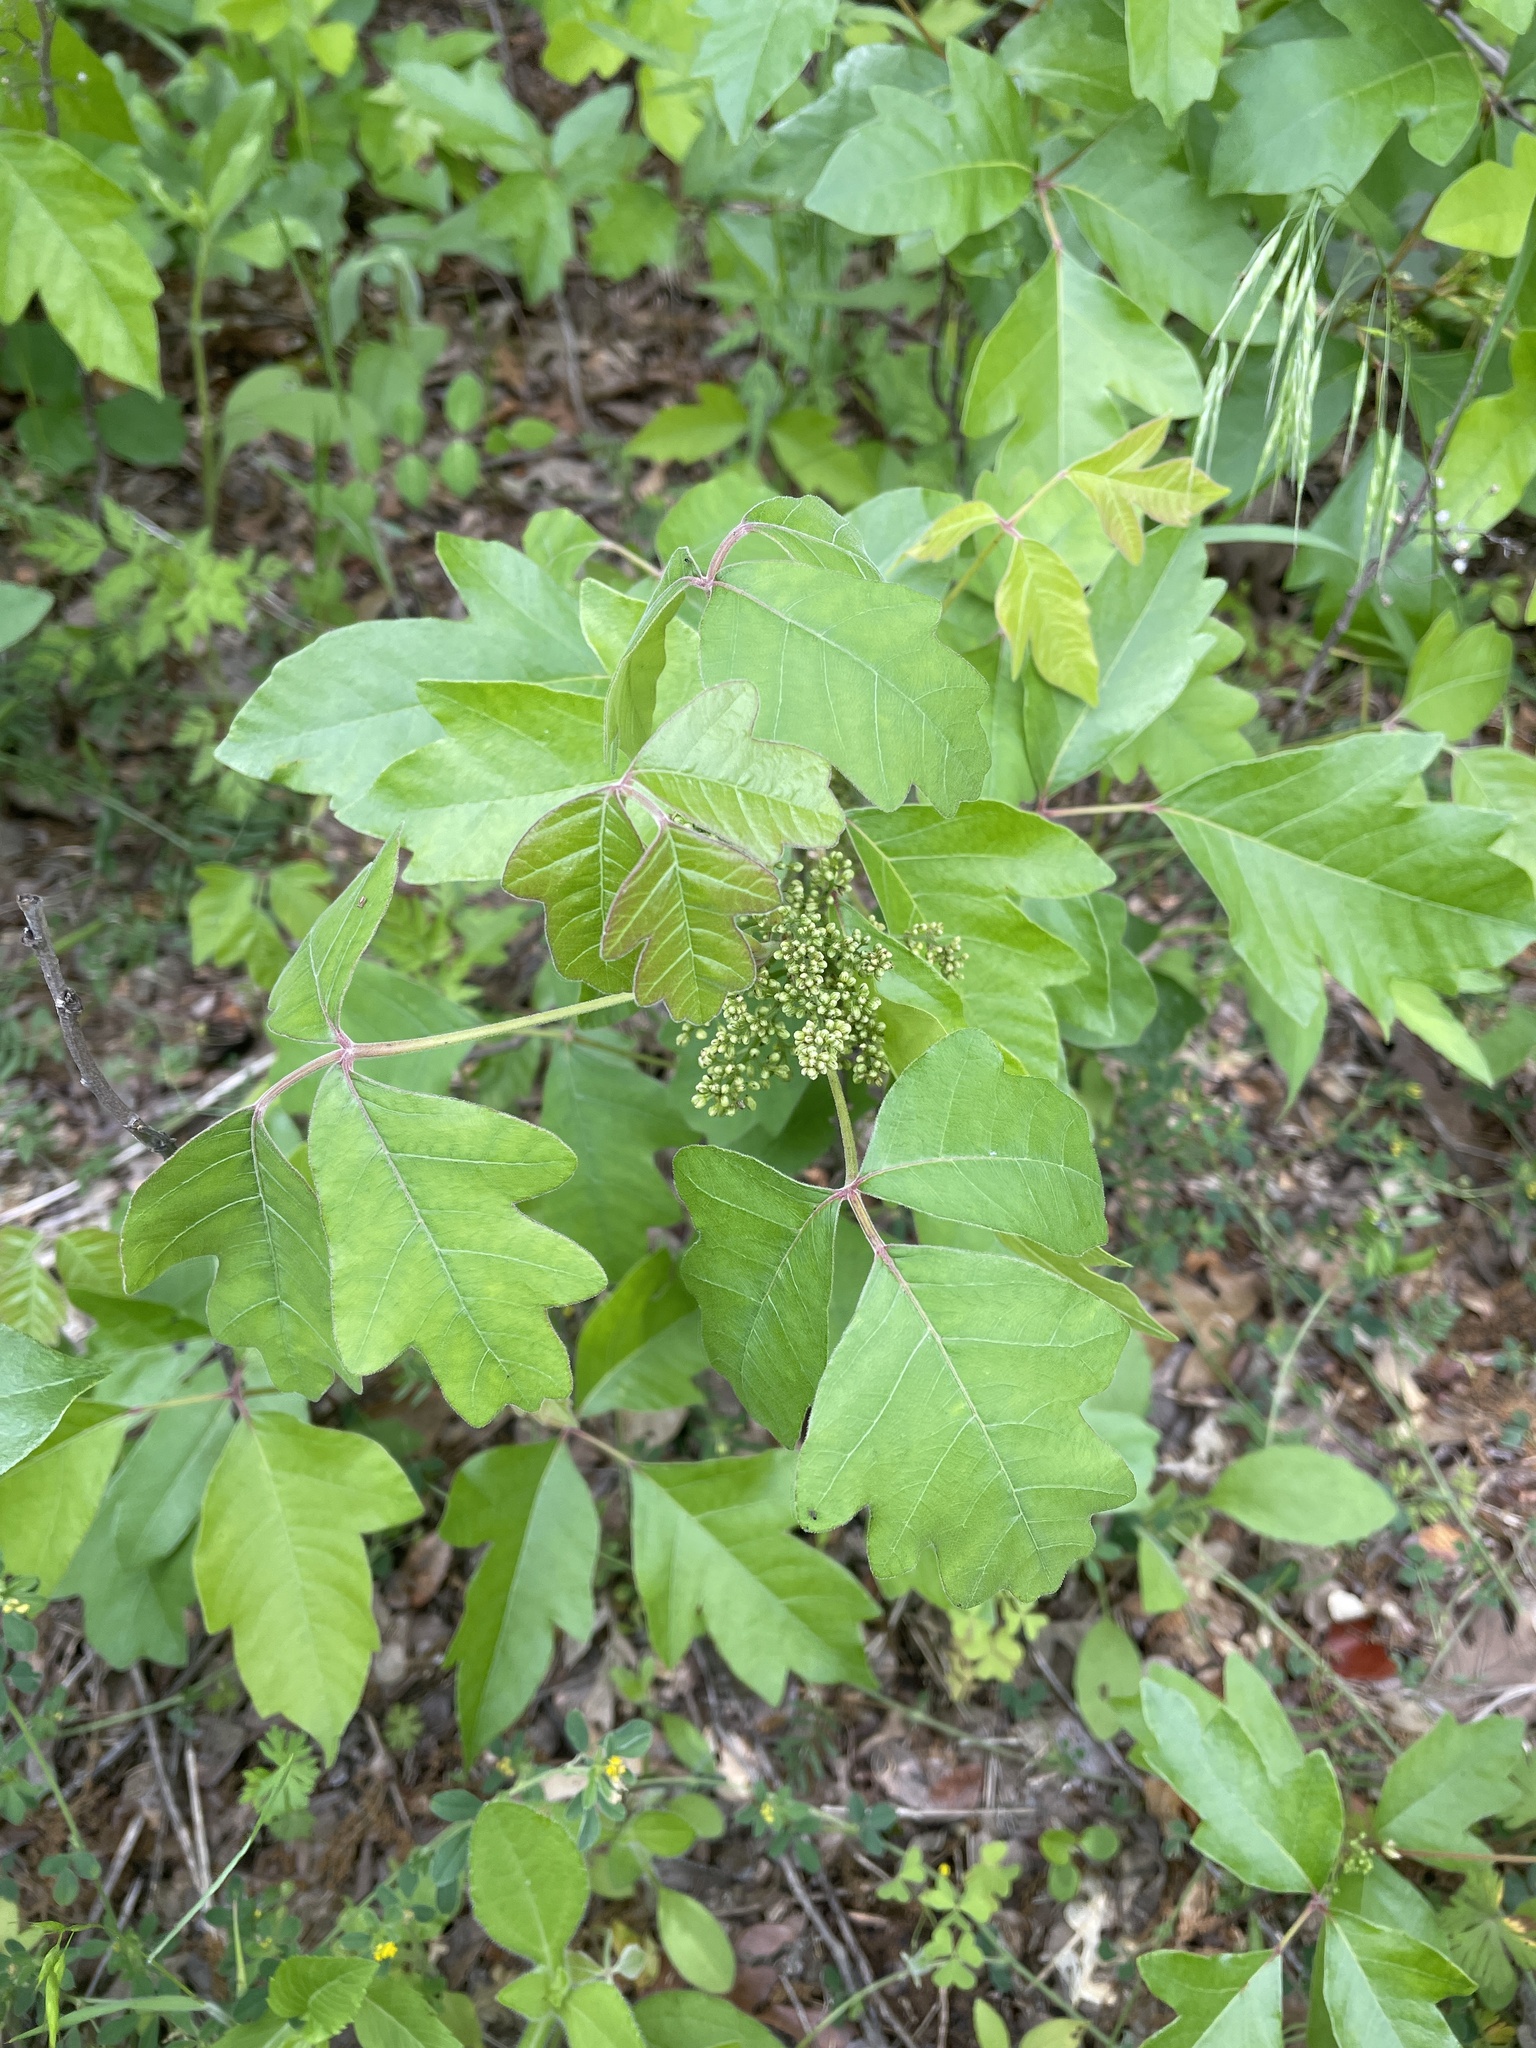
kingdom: Plantae
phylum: Tracheophyta
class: Magnoliopsida
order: Sapindales
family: Anacardiaceae
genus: Toxicodendron
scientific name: Toxicodendron pubescens
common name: Eastern poison-oak
